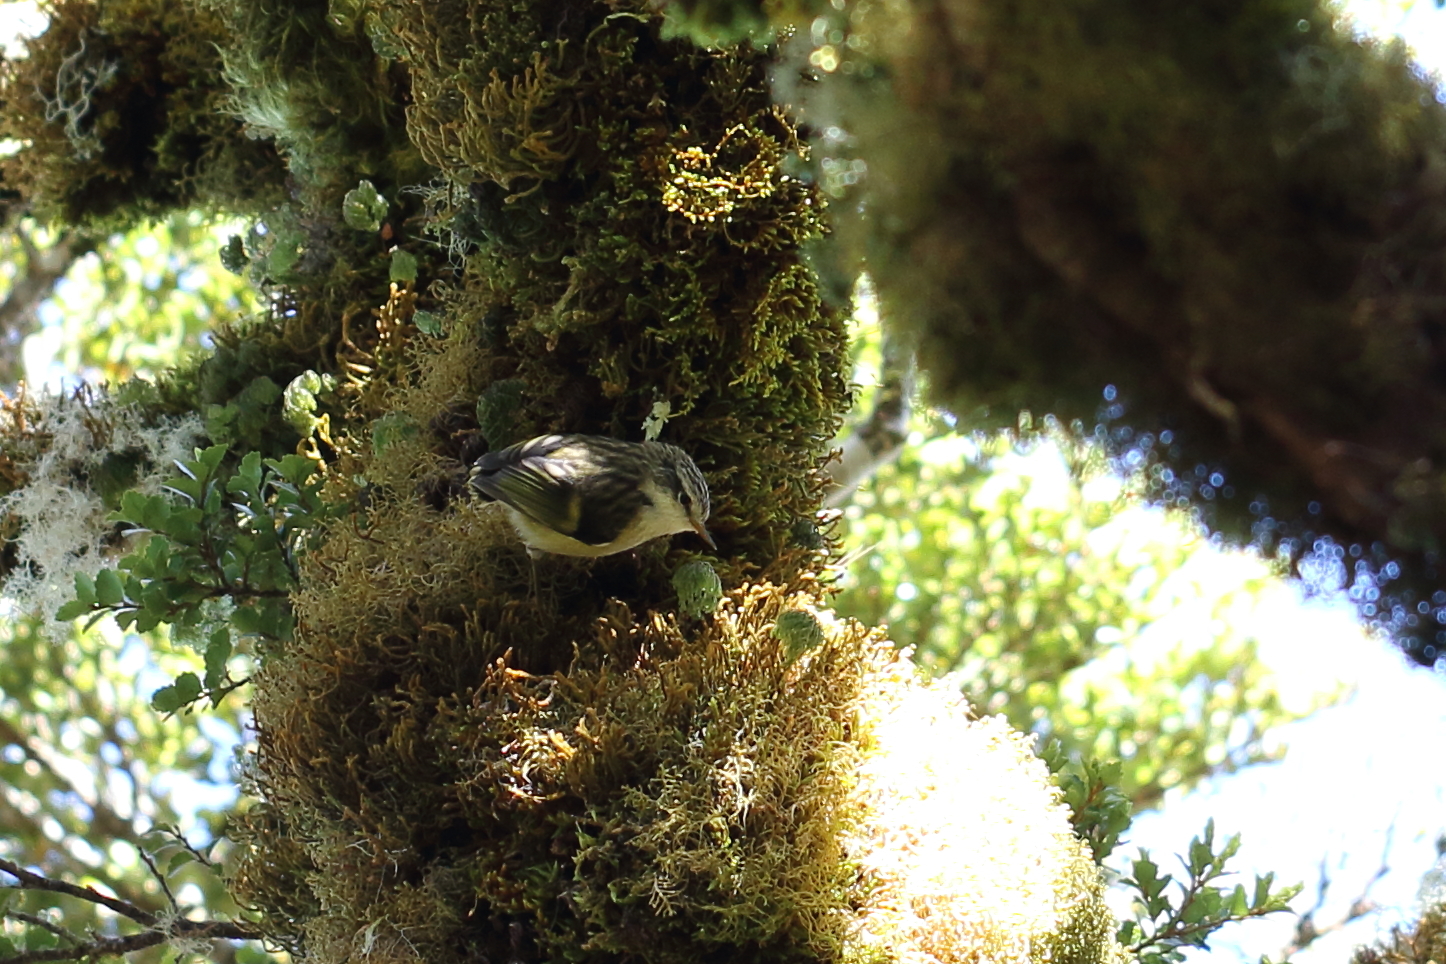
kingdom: Animalia
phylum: Chordata
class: Aves
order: Passeriformes
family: Acanthisittidae
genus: Acanthisitta
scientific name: Acanthisitta chloris
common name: Rifleman
